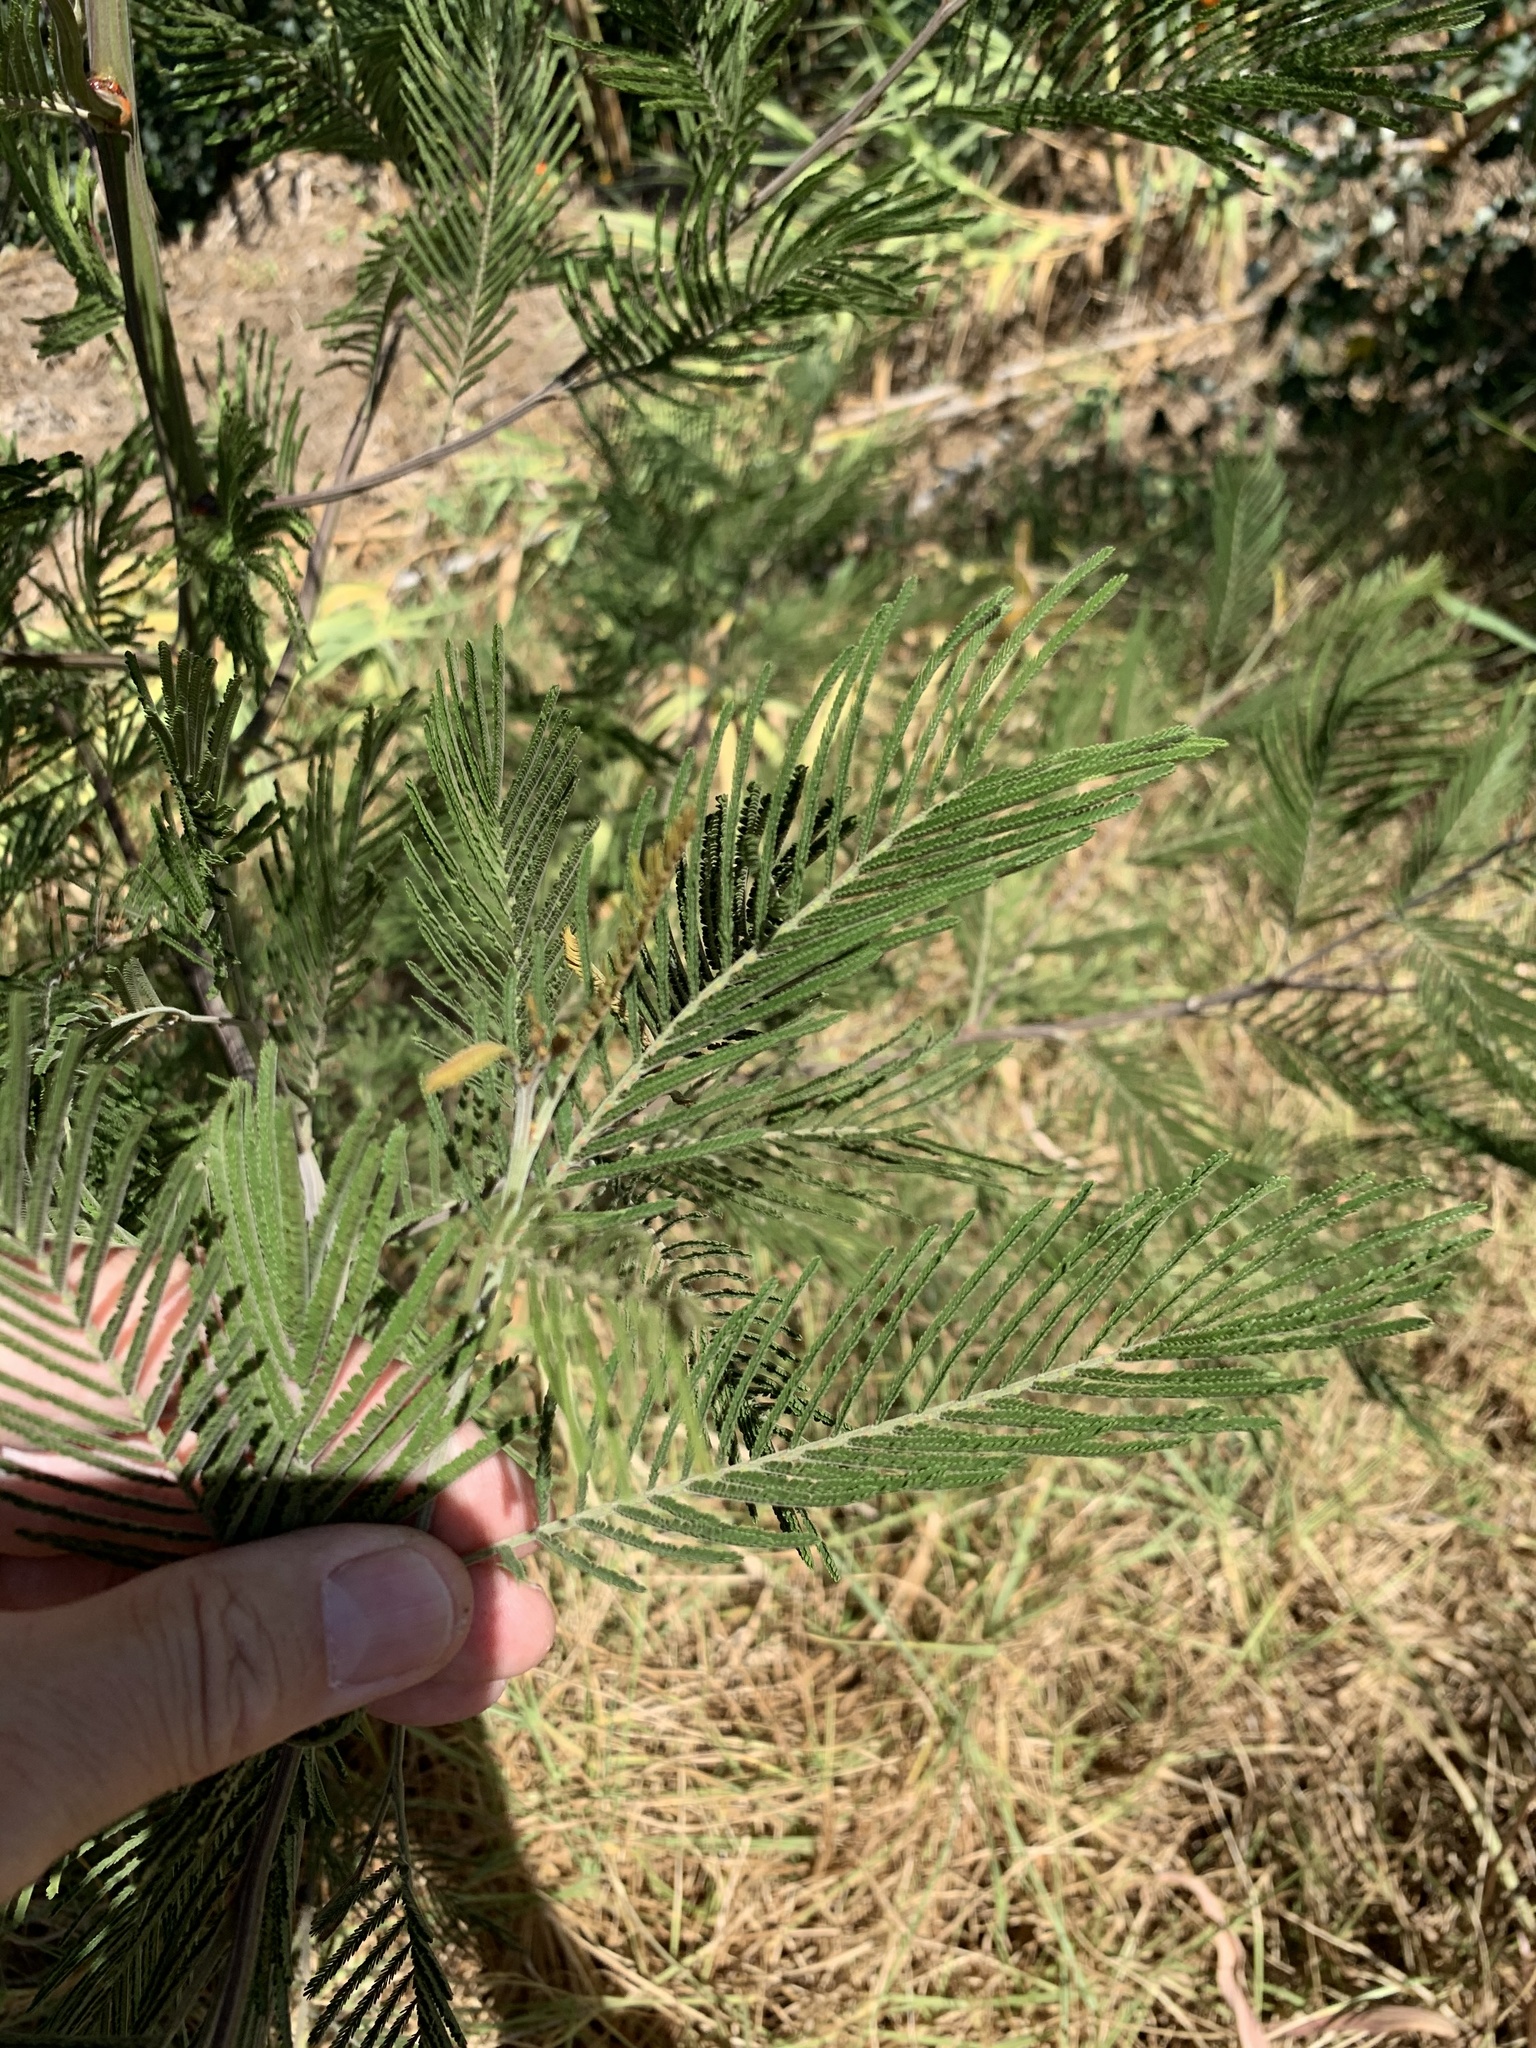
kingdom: Plantae
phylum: Tracheophyta
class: Magnoliopsida
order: Fabales
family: Fabaceae
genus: Acacia
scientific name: Acacia mearnsii
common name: Black wattle
